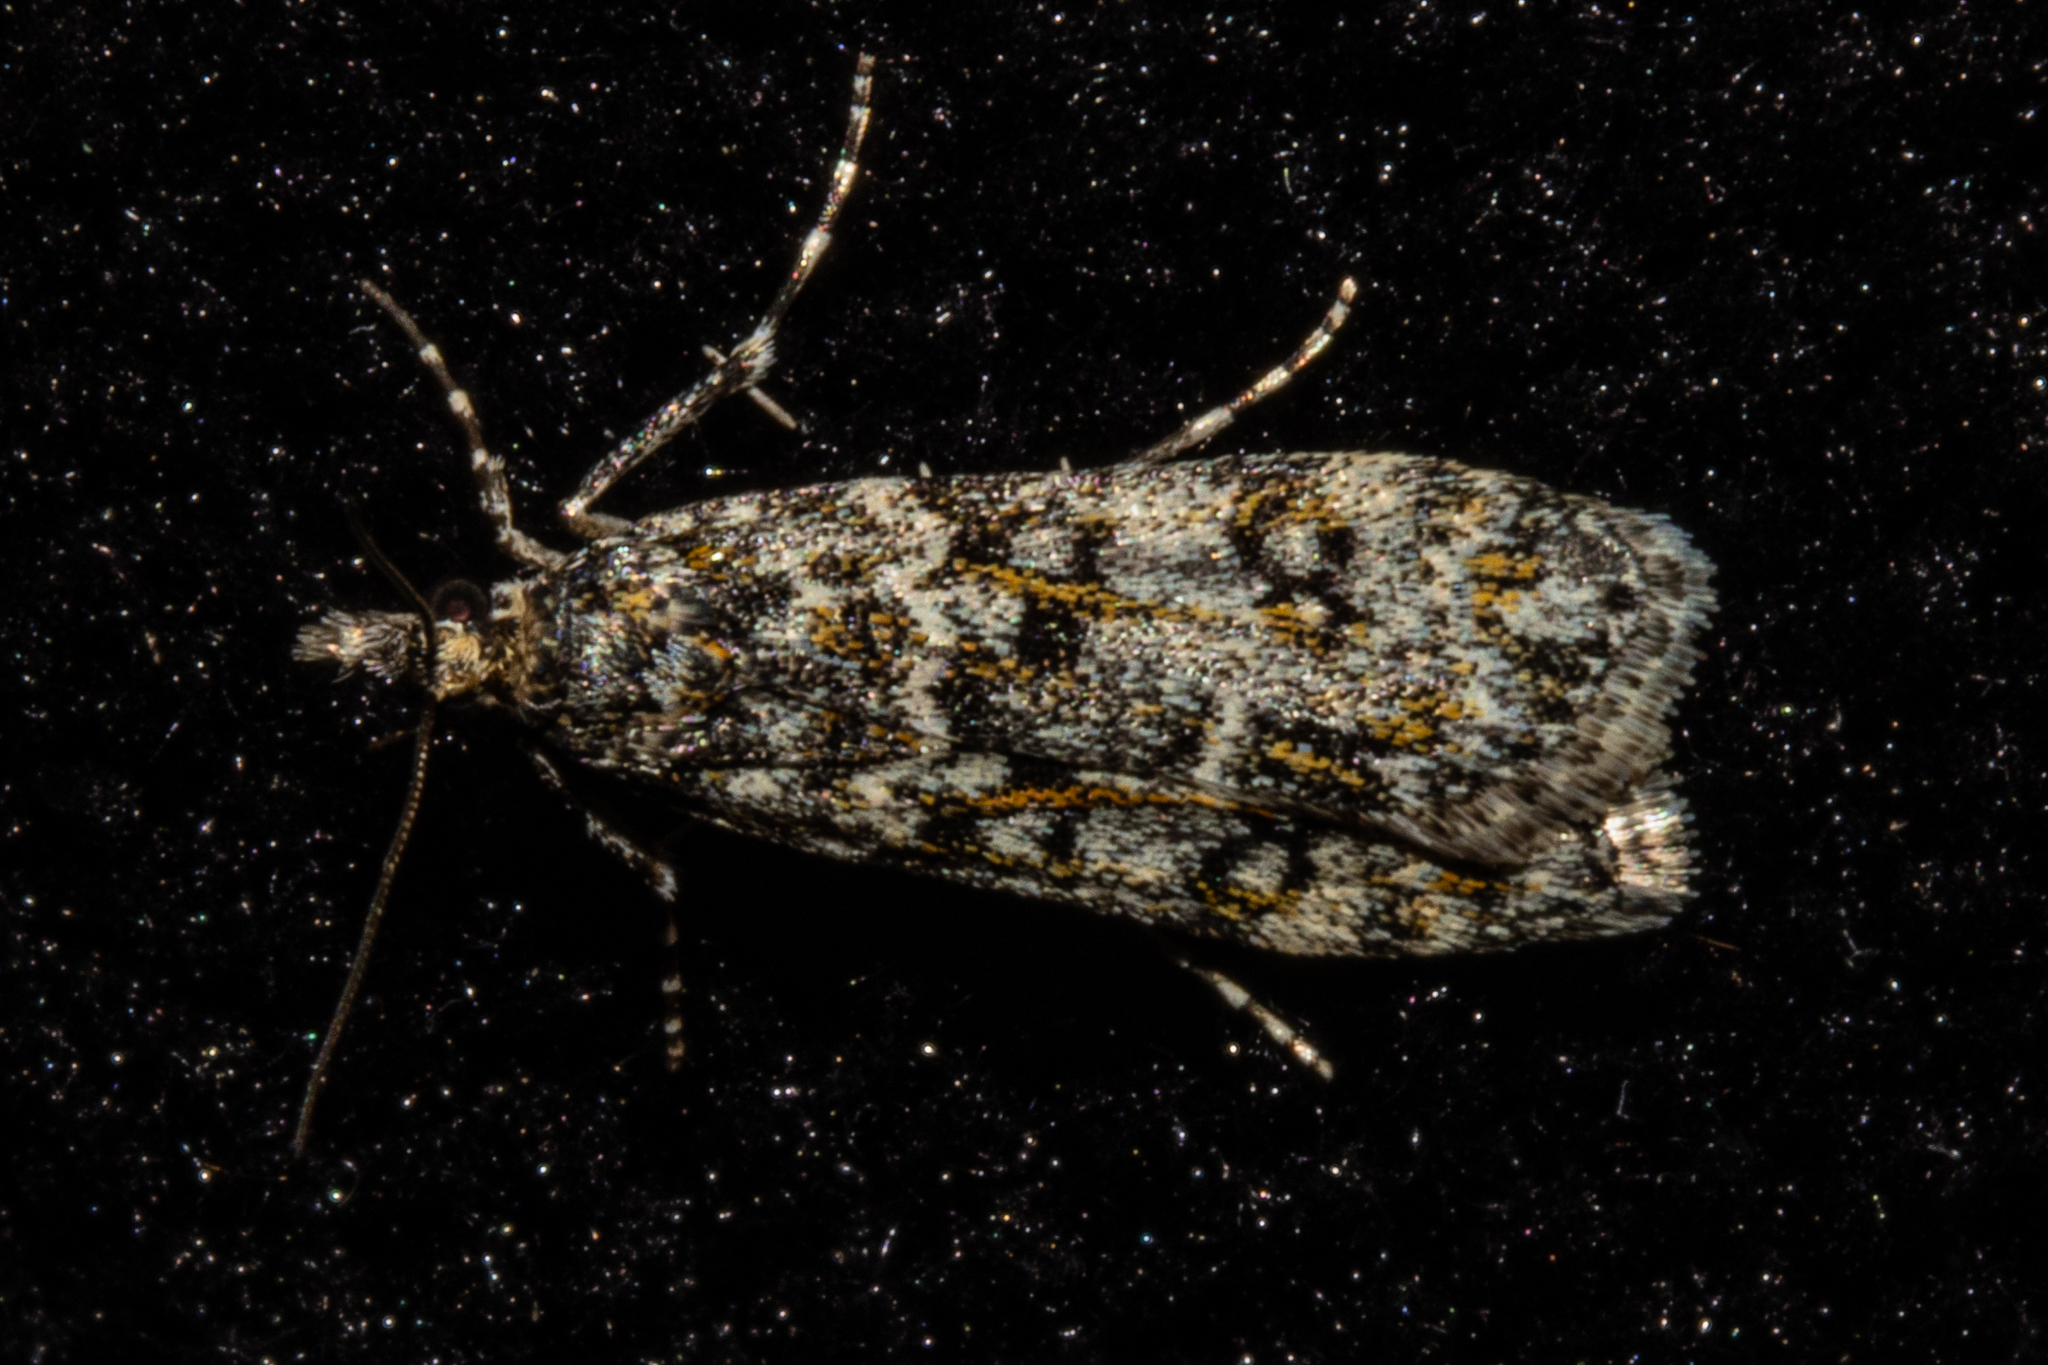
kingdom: Animalia
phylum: Arthropoda
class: Insecta
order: Lepidoptera
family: Crambidae
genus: Eudonia
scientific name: Eudonia
